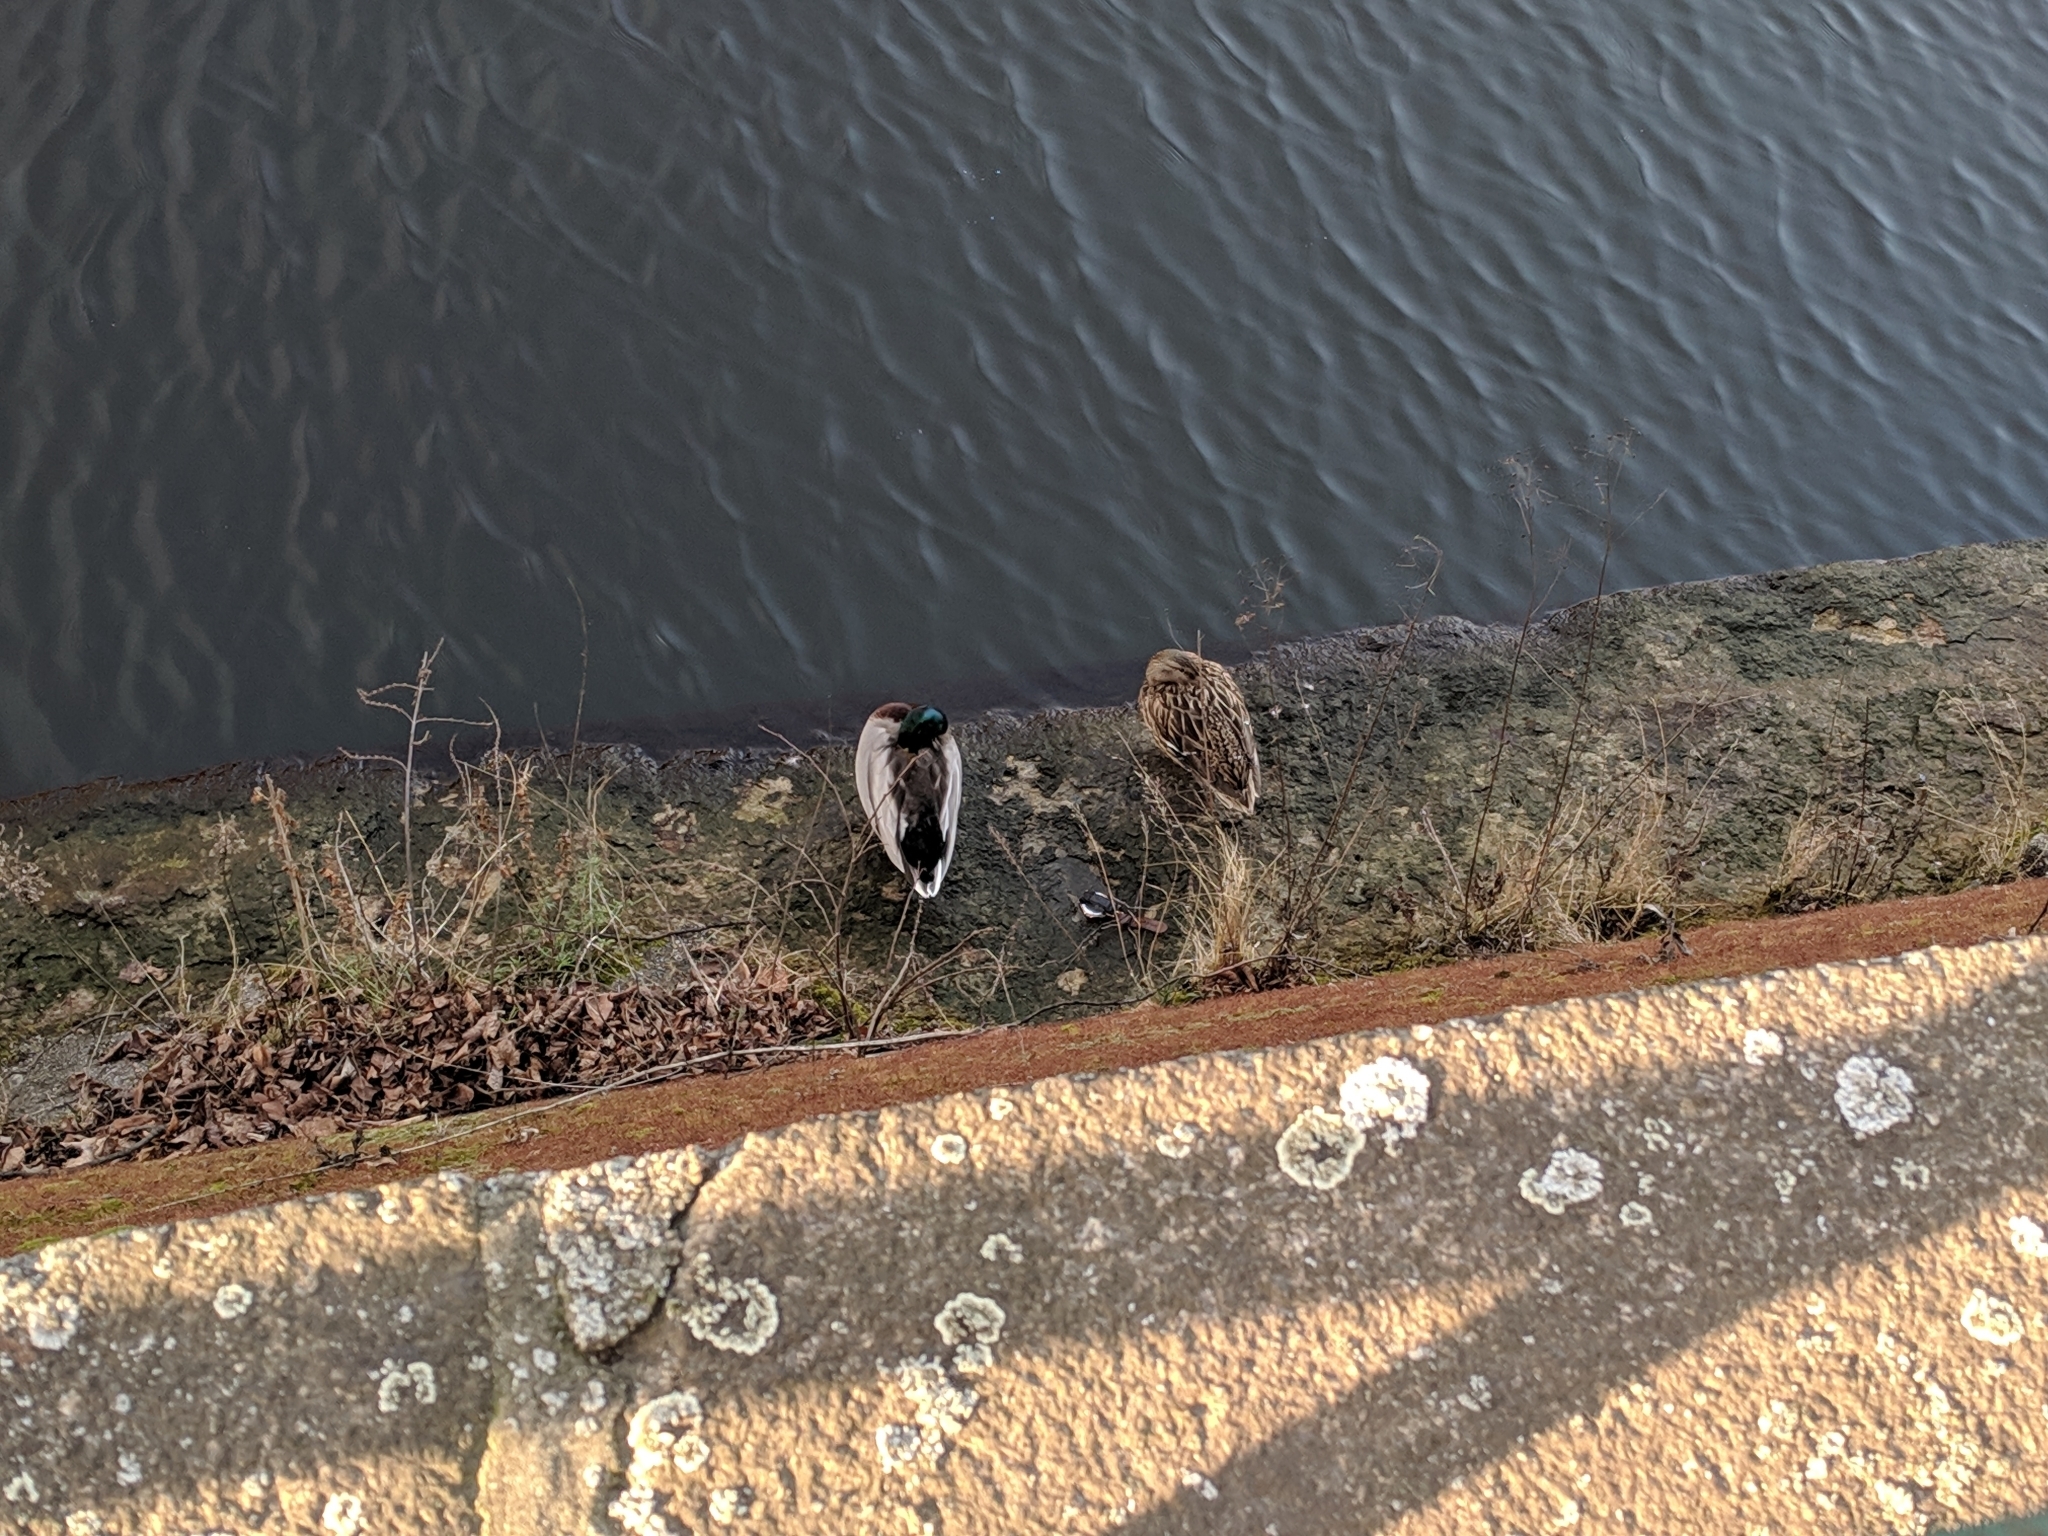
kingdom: Animalia
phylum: Chordata
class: Aves
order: Anseriformes
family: Anatidae
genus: Anas
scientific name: Anas platyrhynchos
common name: Mallard
